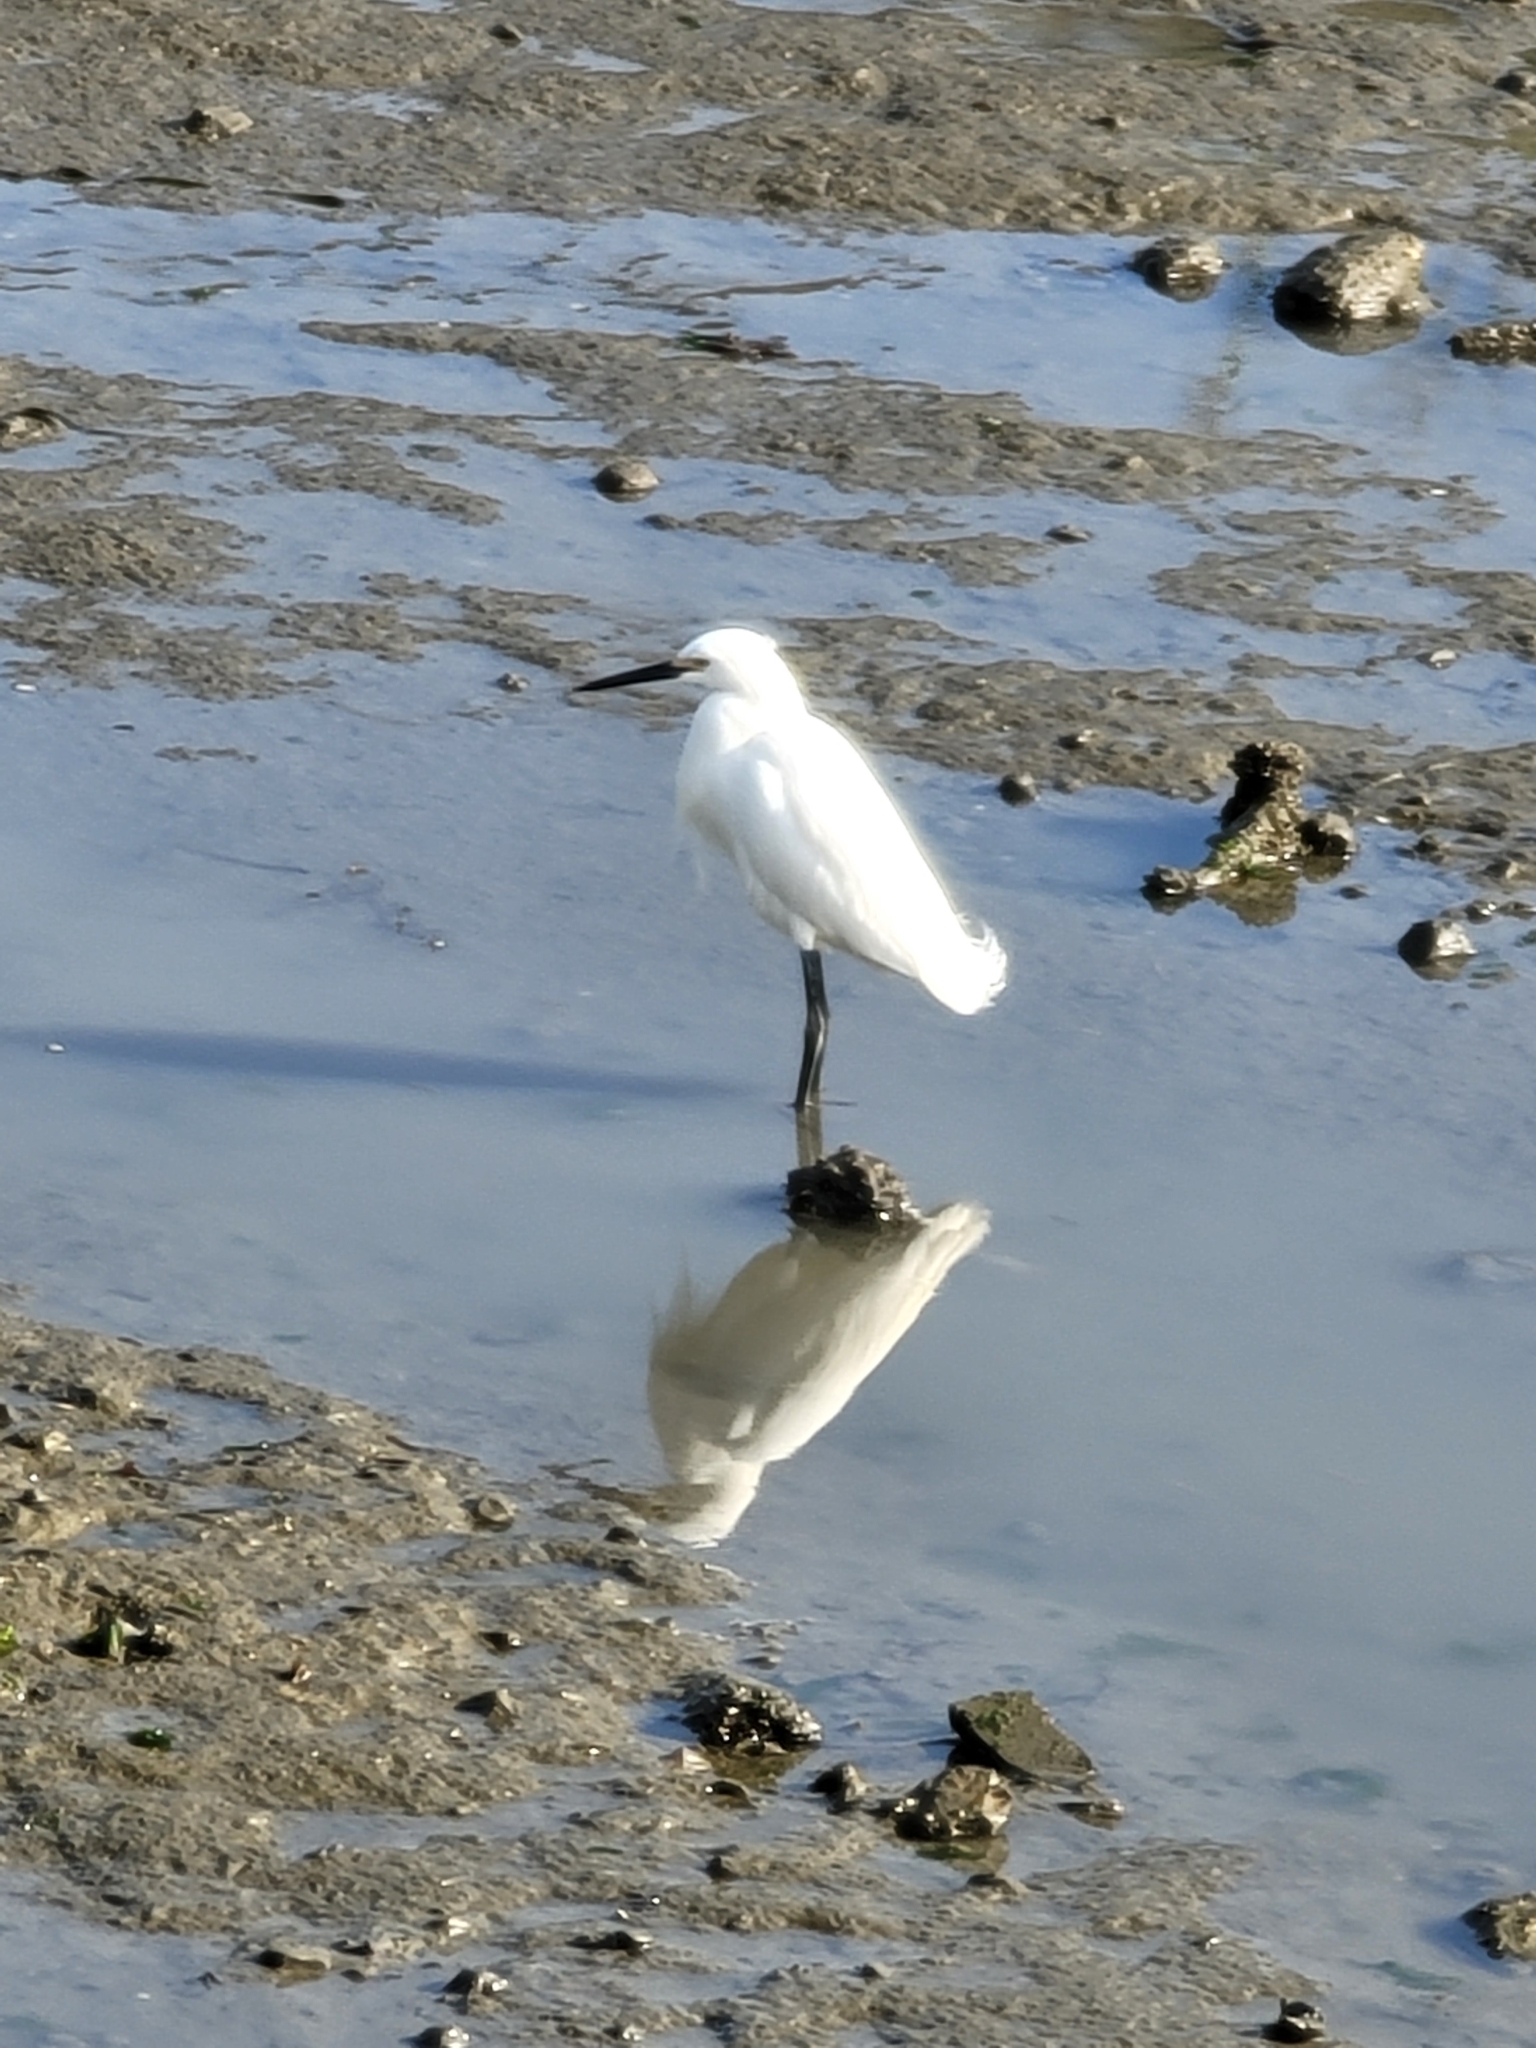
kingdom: Animalia
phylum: Chordata
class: Aves
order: Pelecaniformes
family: Ardeidae
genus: Egretta
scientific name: Egretta thula
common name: Snowy egret
